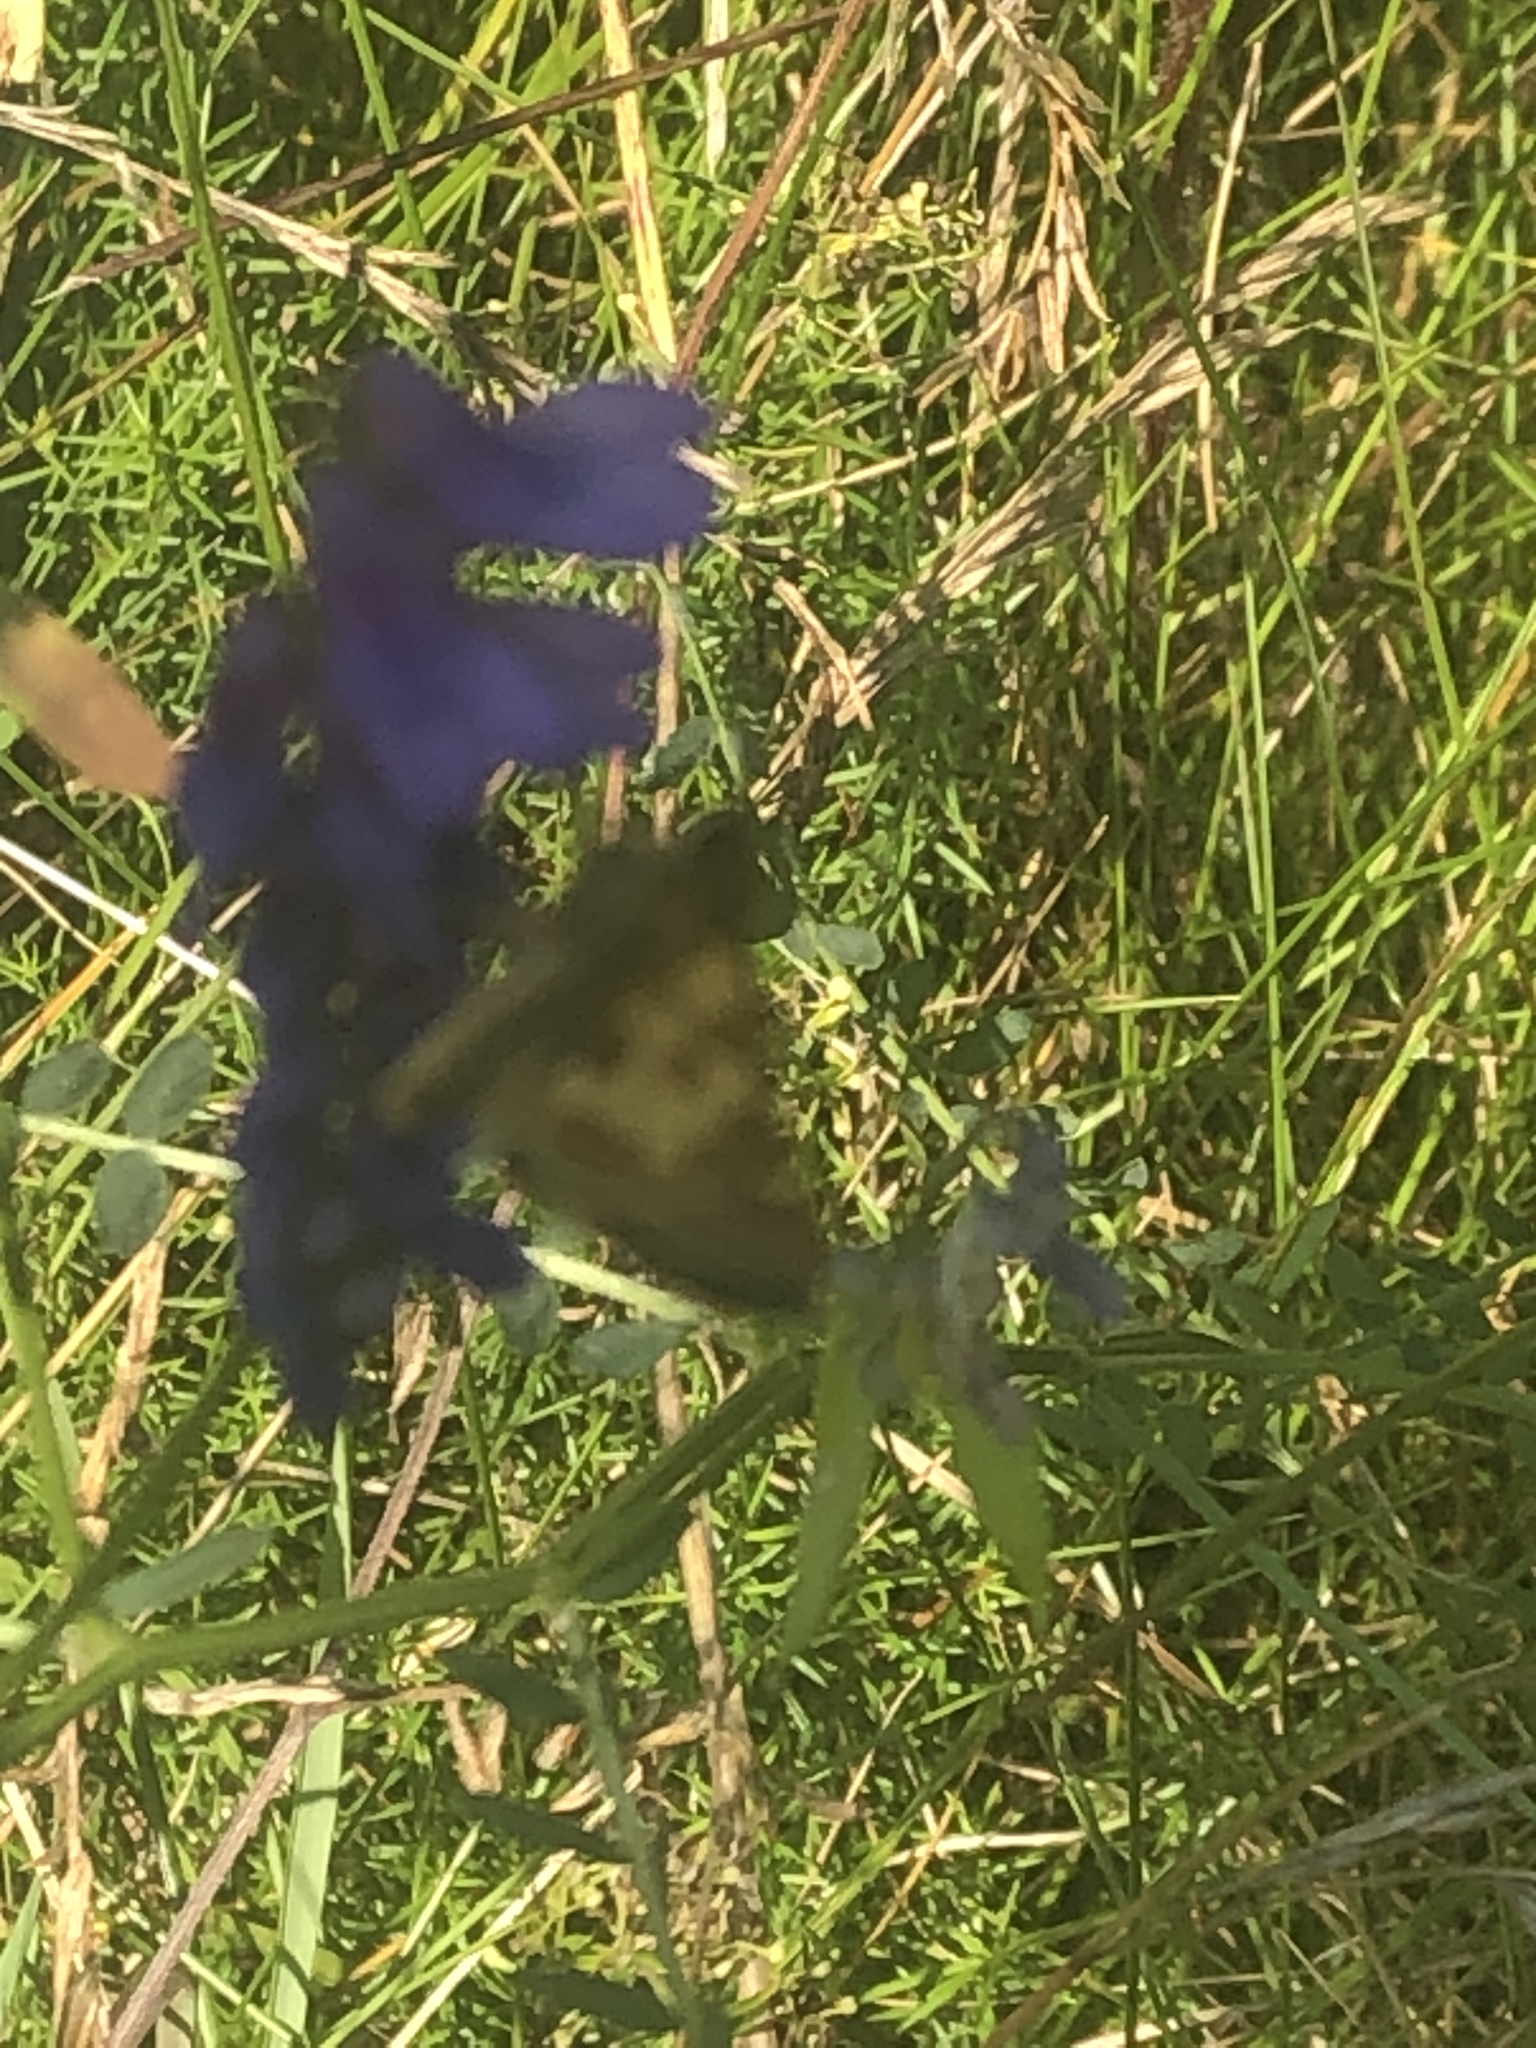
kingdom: Animalia
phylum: Arthropoda
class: Insecta
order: Lepidoptera
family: Hesperiidae
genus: Polites
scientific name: Polites coras
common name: Peck's skipper
